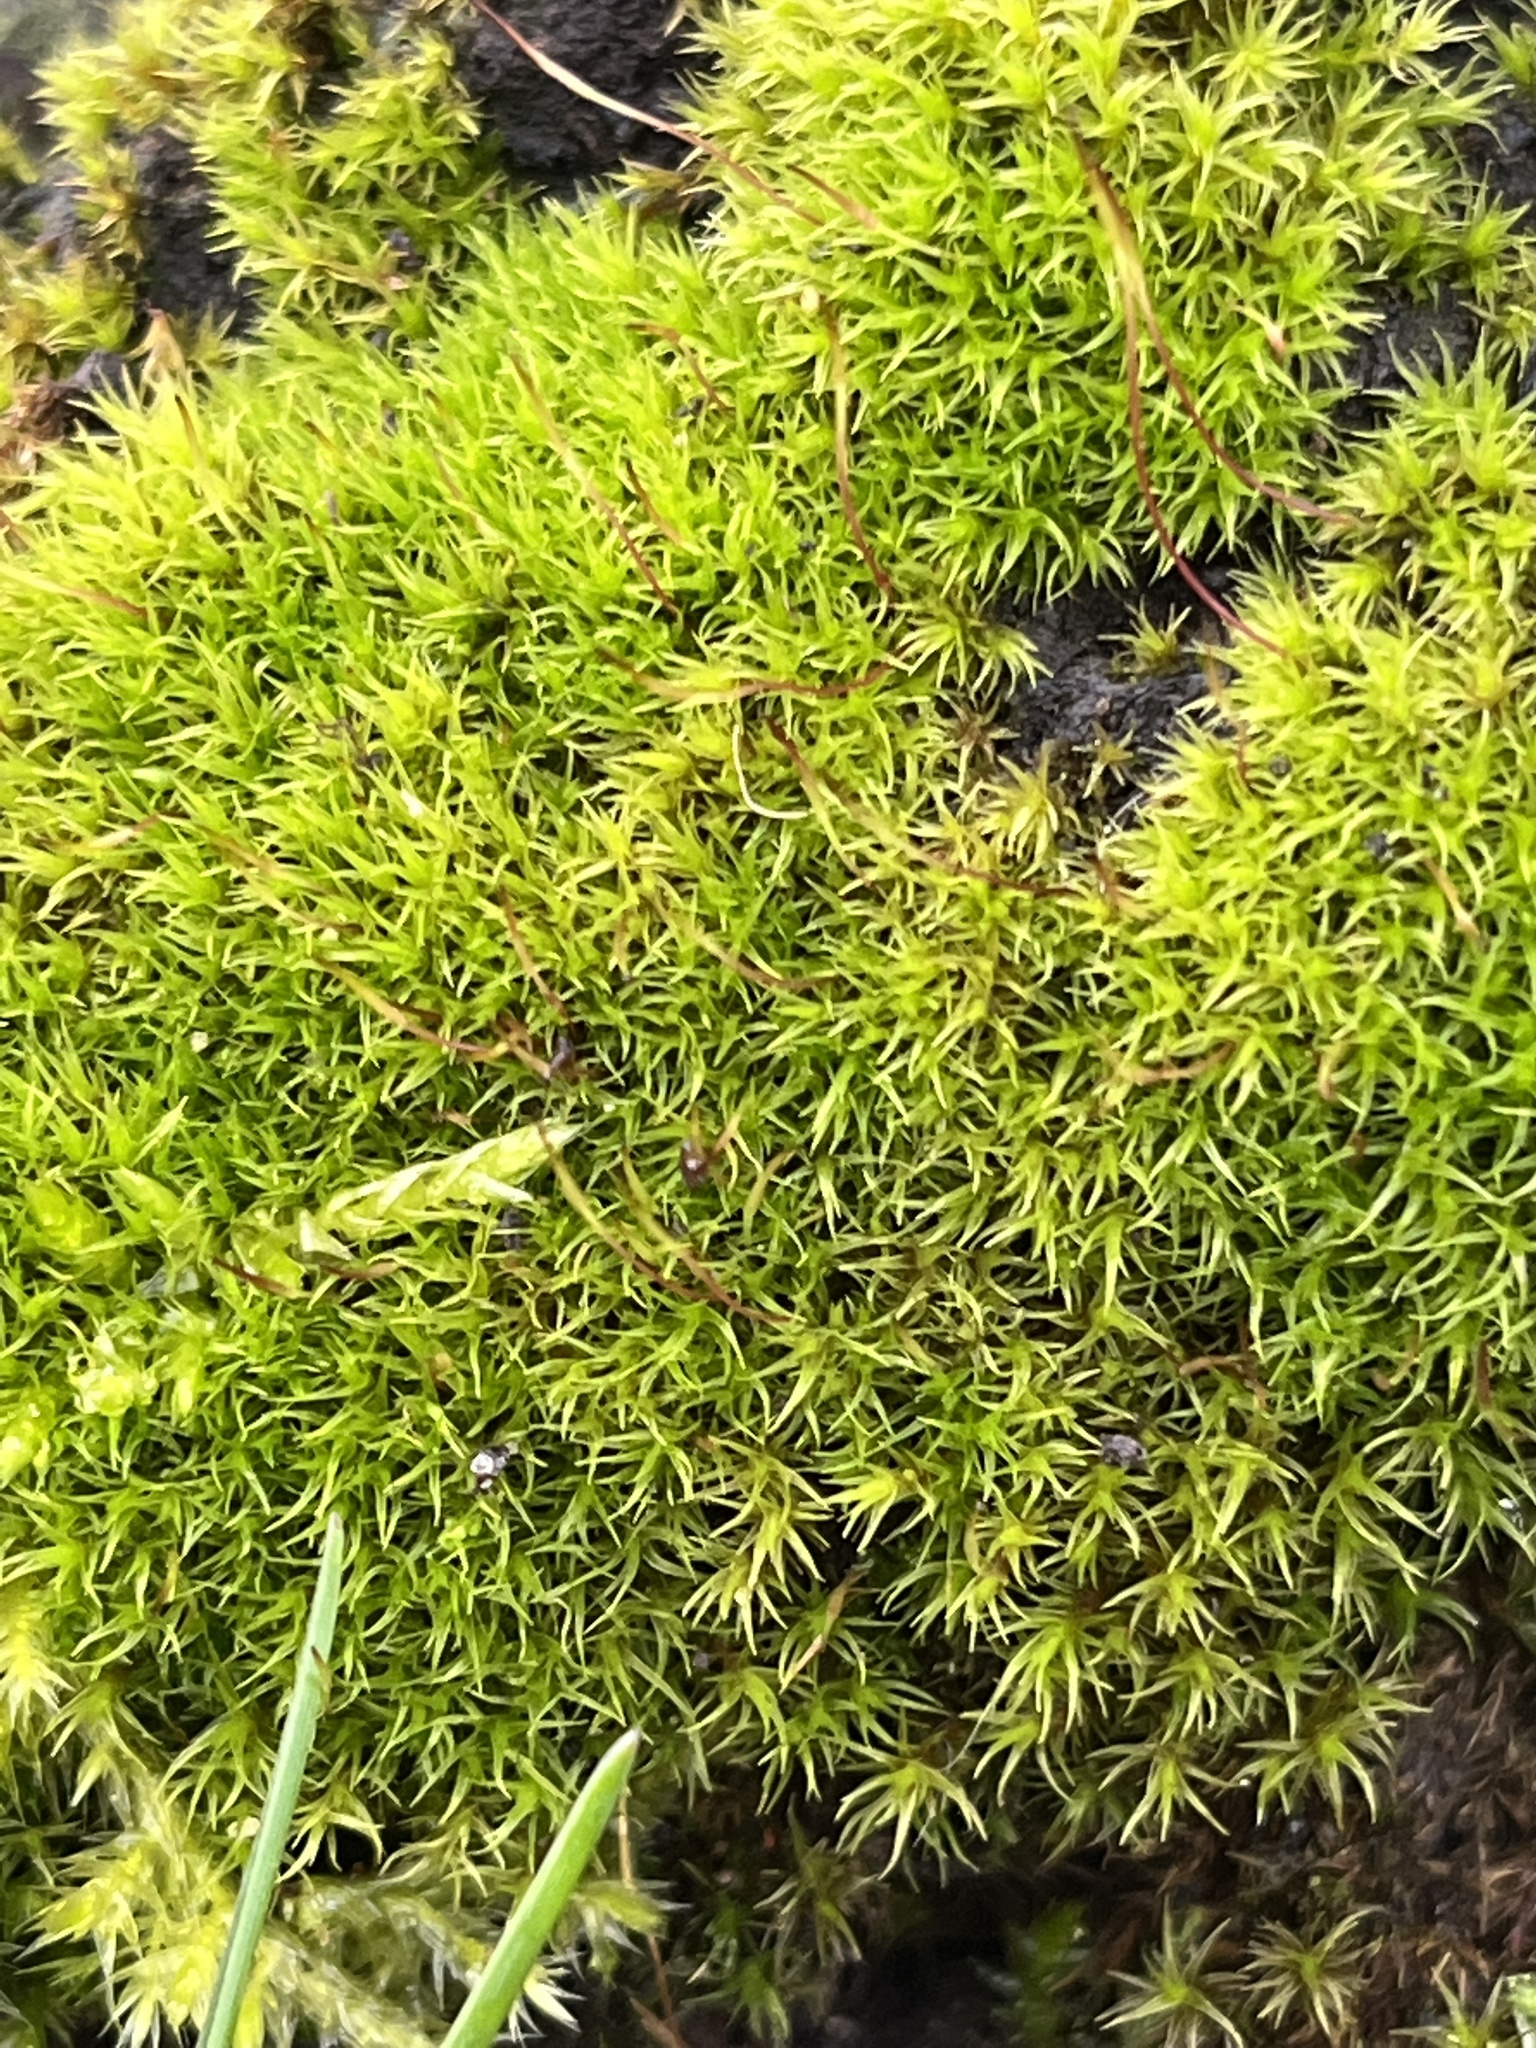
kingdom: Plantae
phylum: Bryophyta
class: Bryopsida
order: Dicranales
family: Dicranaceae
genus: Dicranum
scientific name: Dicranum scoparium
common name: Broom fork-moss
